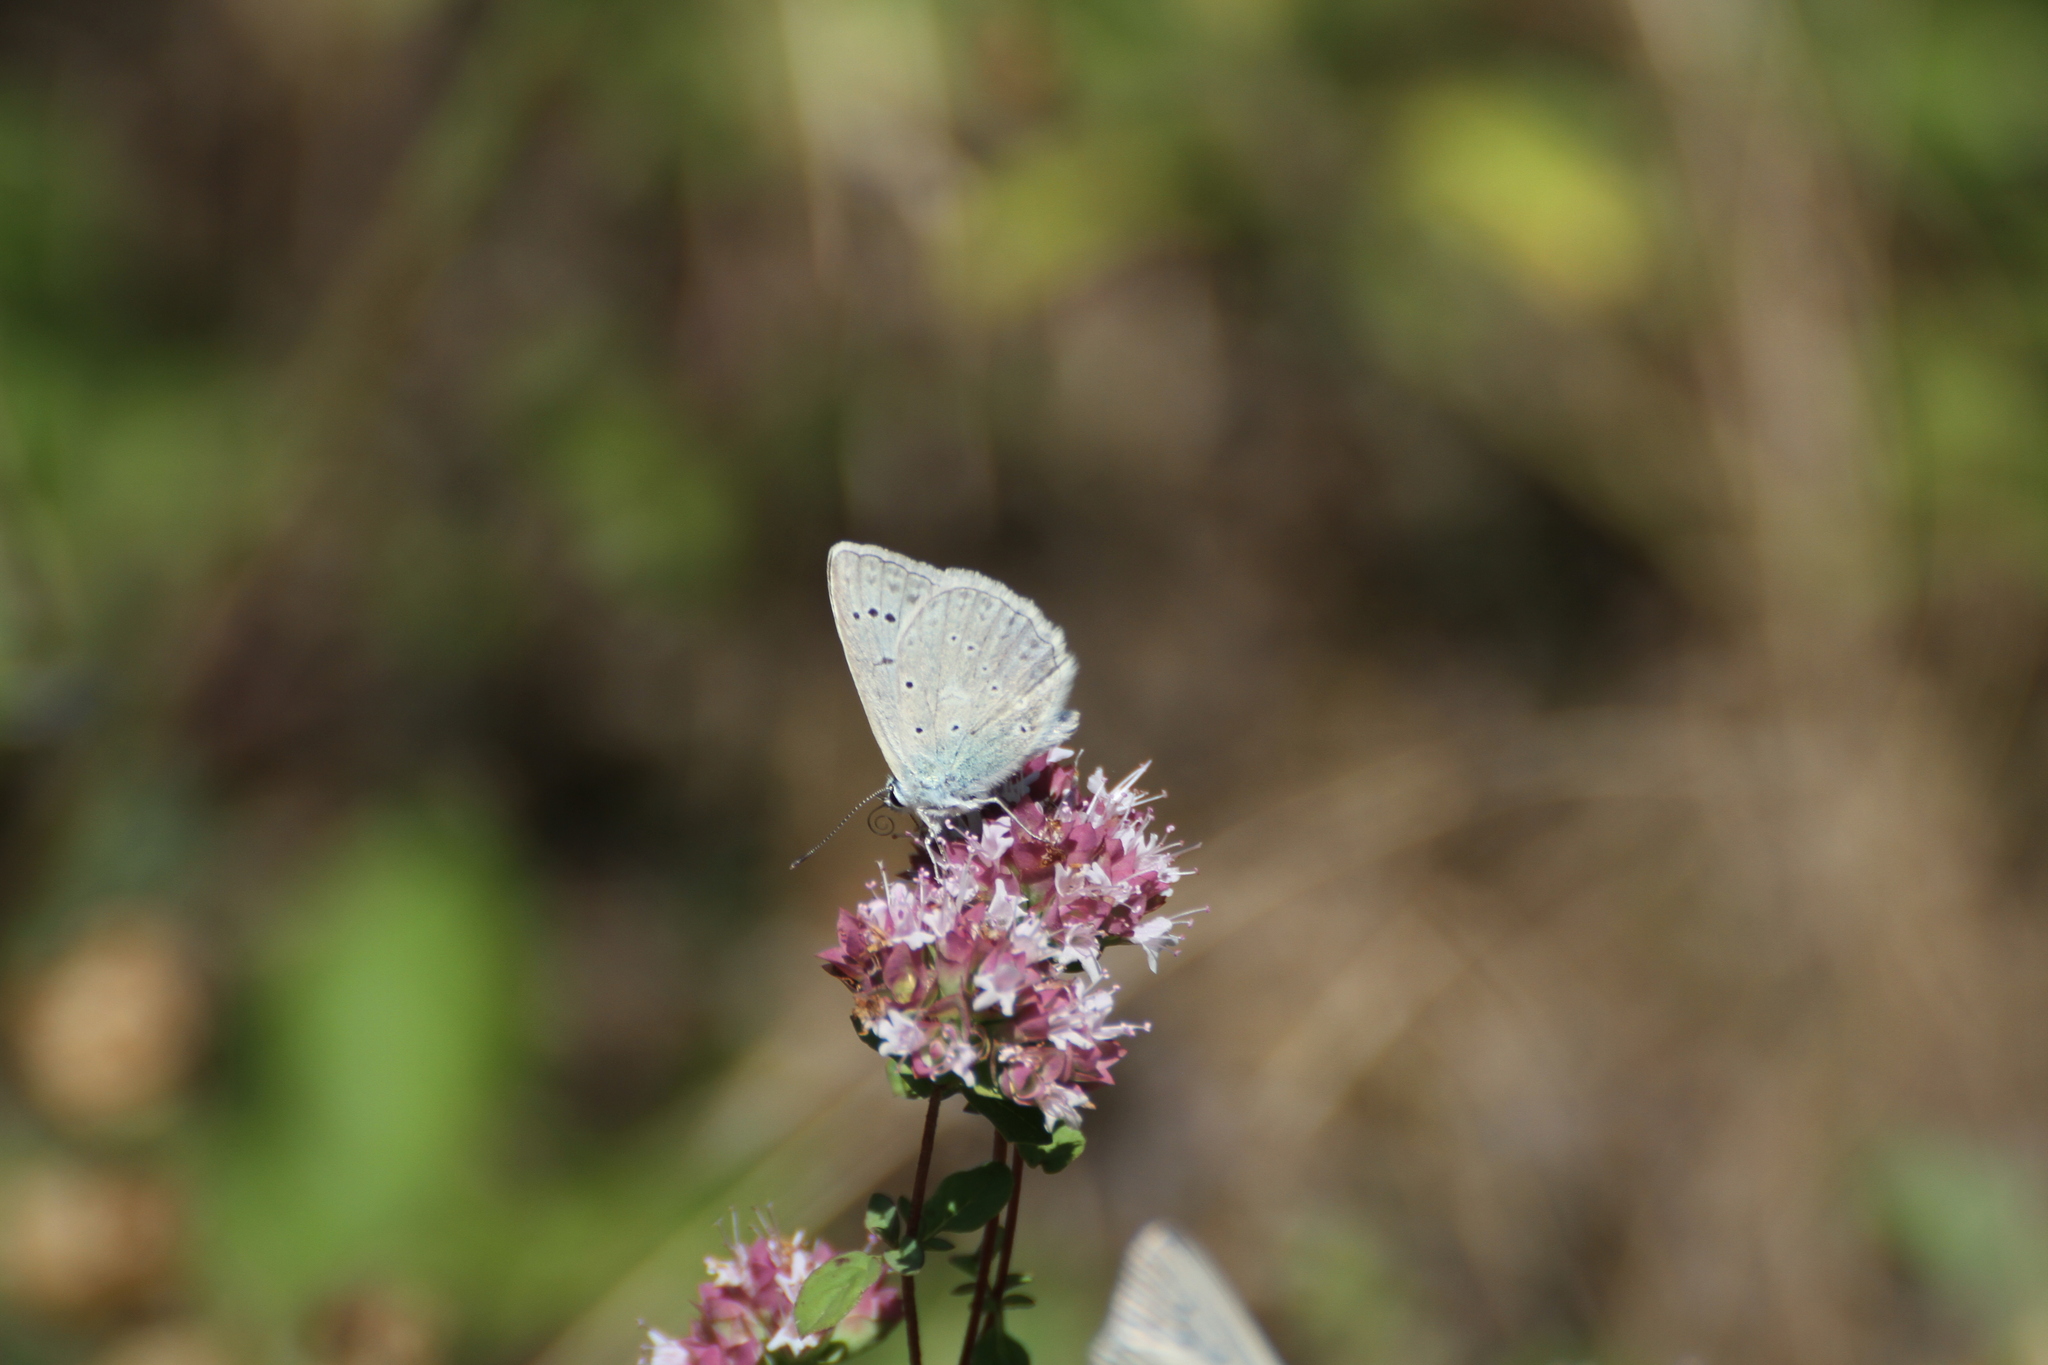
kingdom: Animalia
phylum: Arthropoda
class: Insecta
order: Lepidoptera
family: Lycaenidae
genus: Polyommatus
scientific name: Polyommatus daphnis
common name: Meleager's blue
